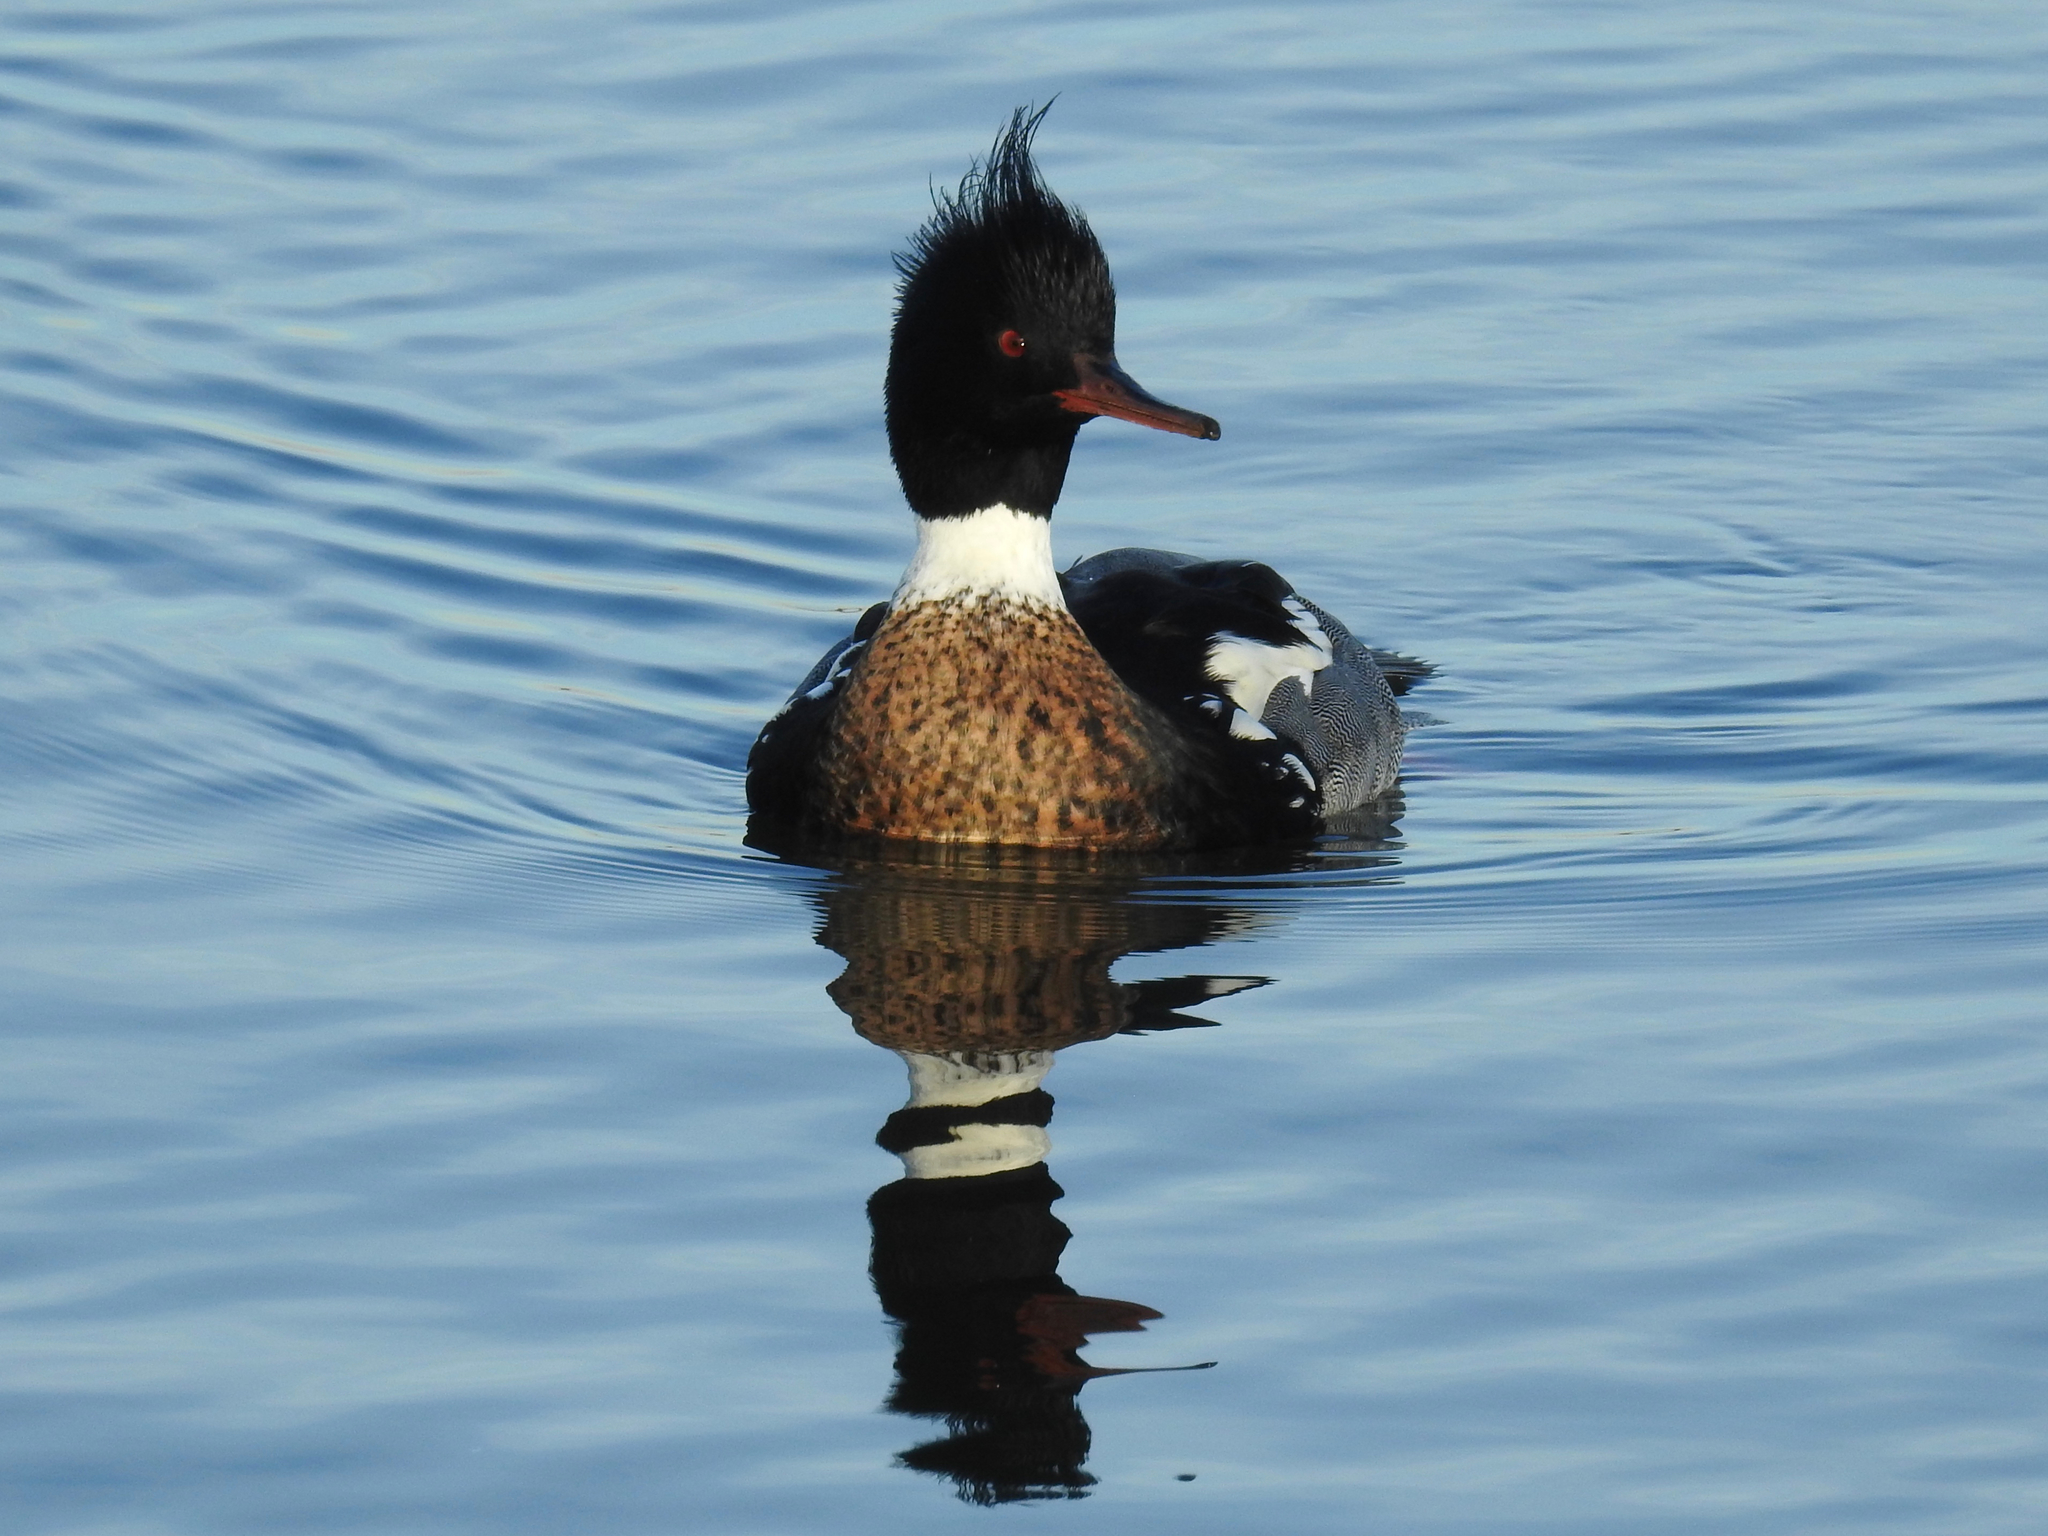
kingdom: Animalia
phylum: Chordata
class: Aves
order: Anseriformes
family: Anatidae
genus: Mergus
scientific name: Mergus serrator
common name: Red-breasted merganser
